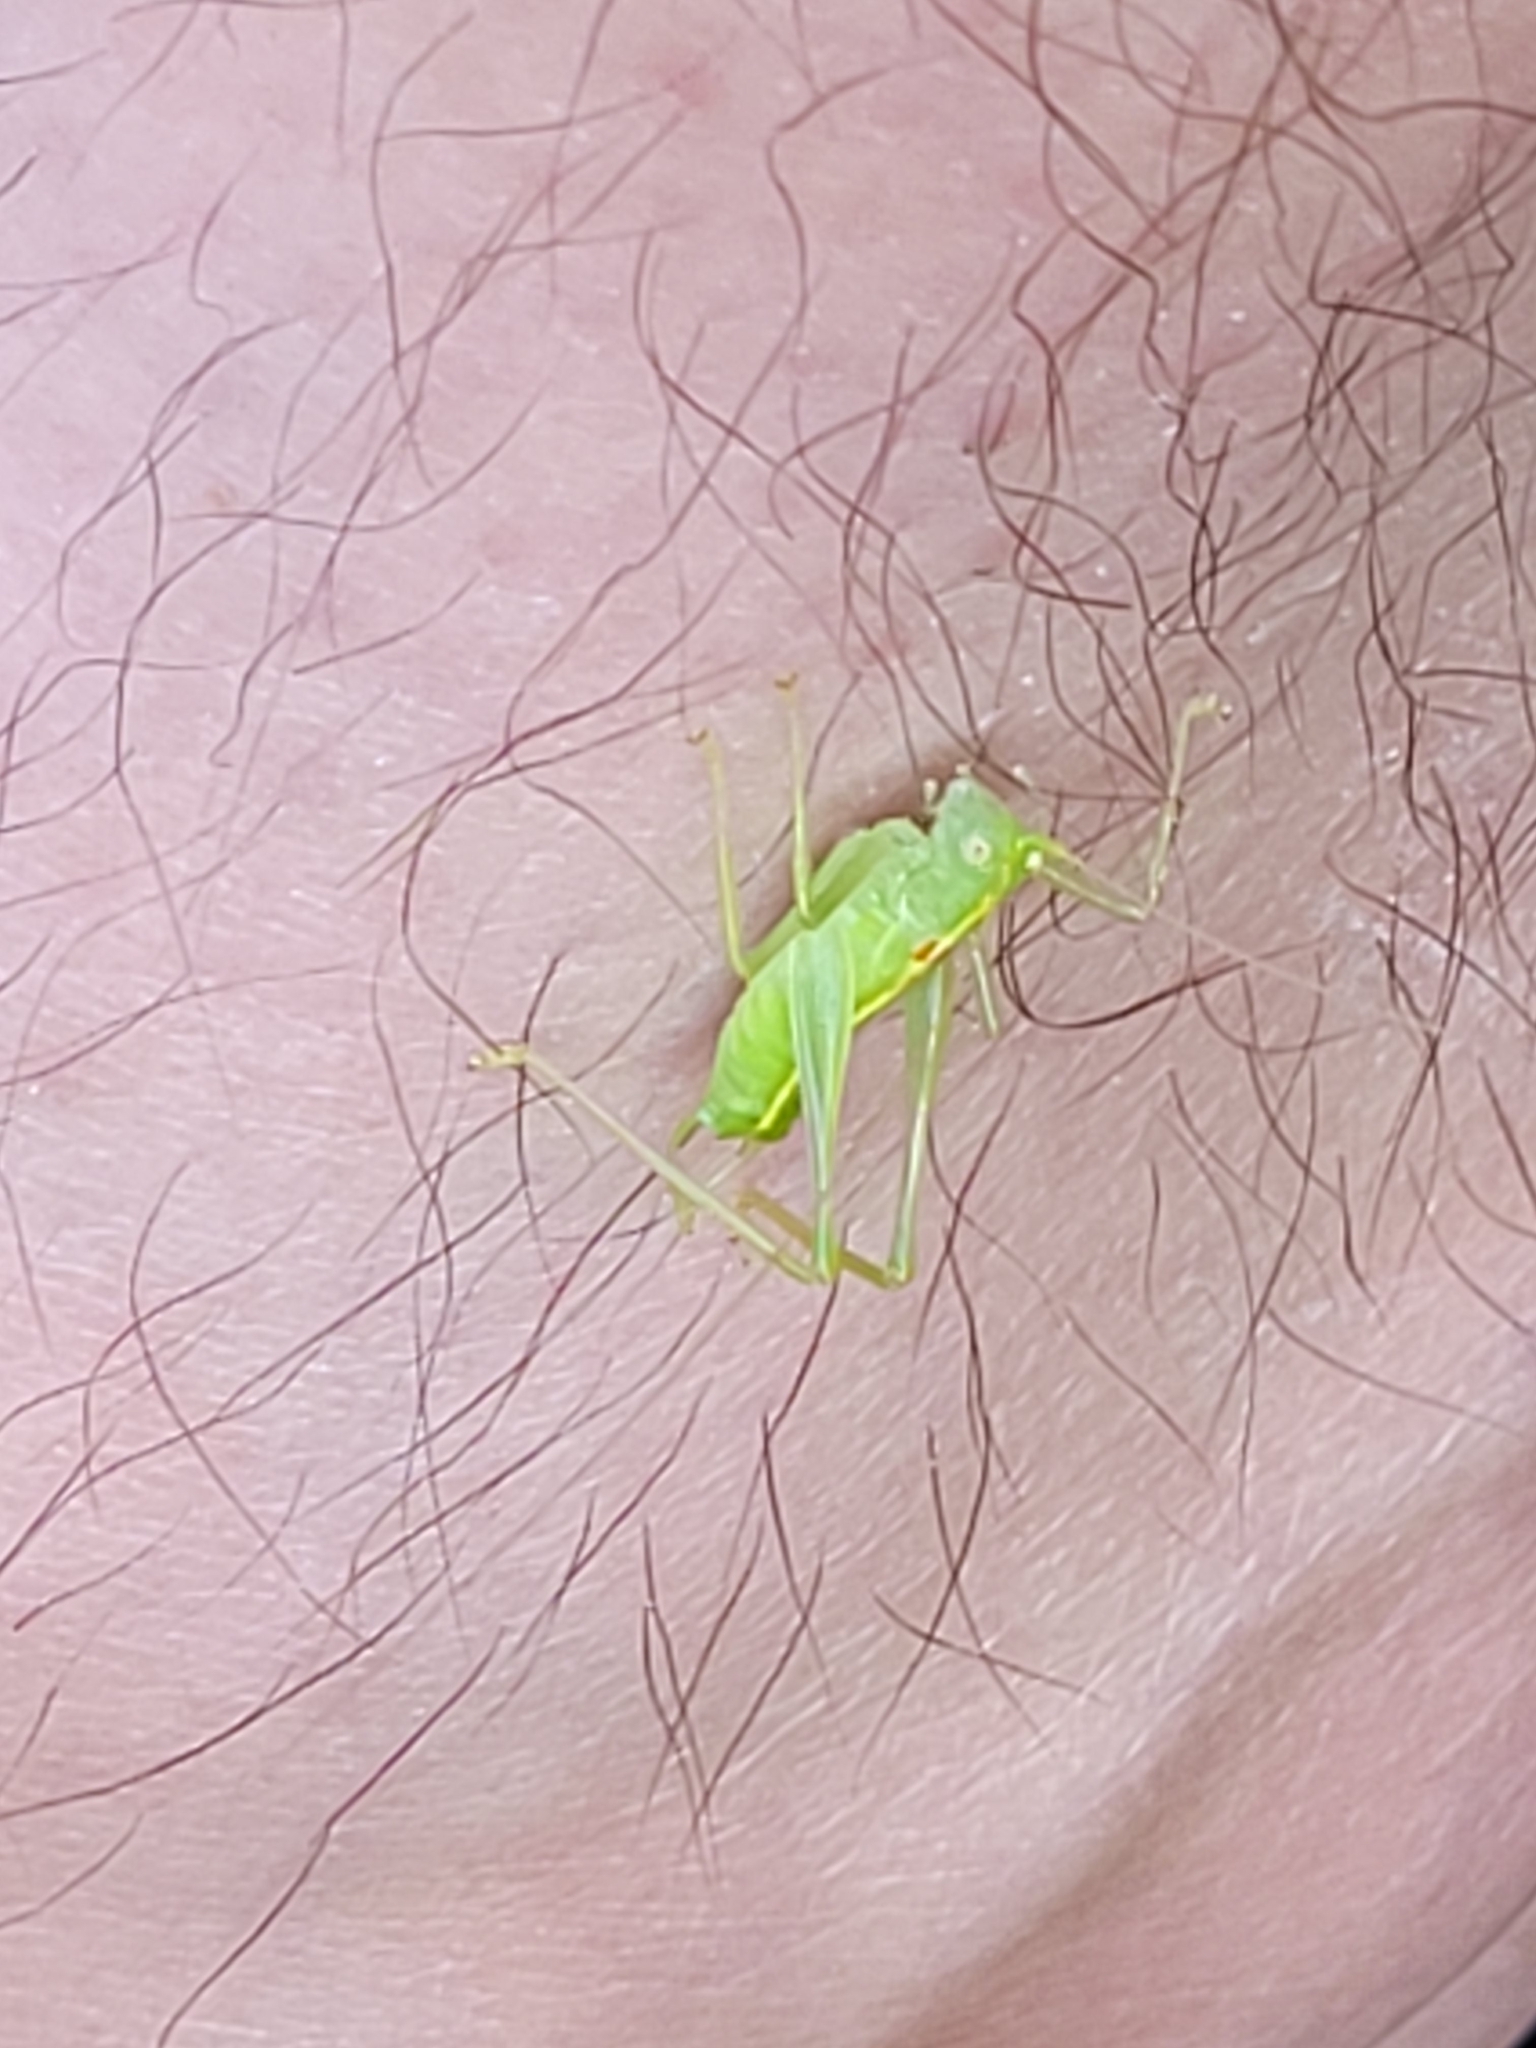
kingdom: Animalia
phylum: Arthropoda
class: Insecta
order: Orthoptera
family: Tettigoniidae
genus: Meconema
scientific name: Meconema meridionale
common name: Southern oak bush-cricket
